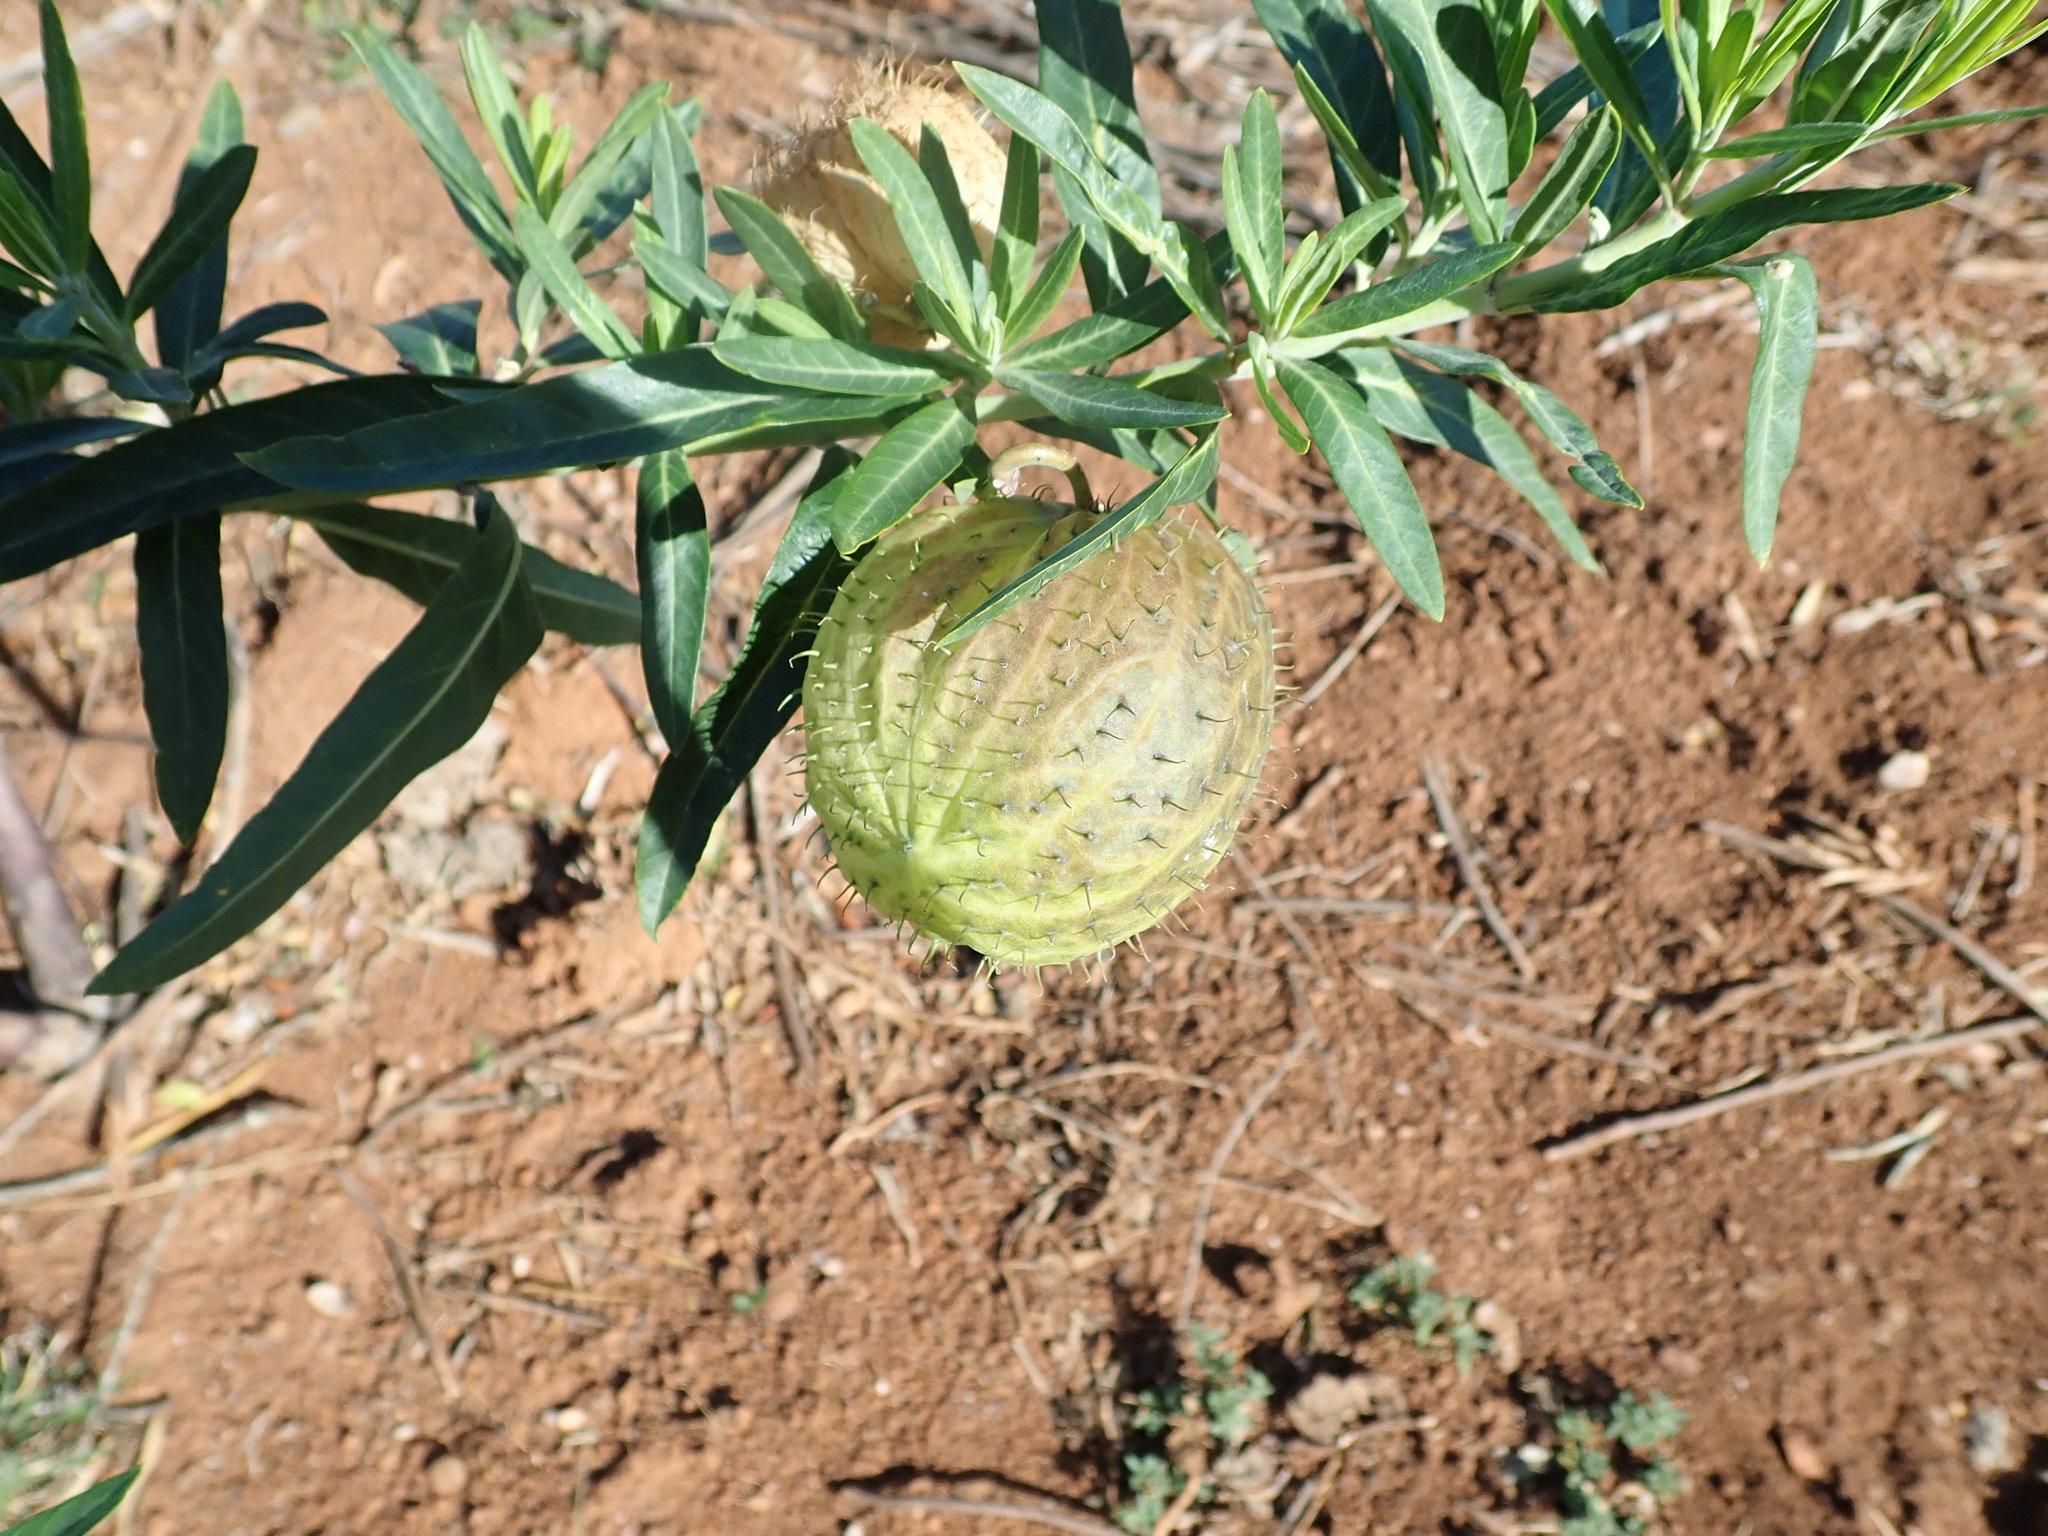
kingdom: Plantae
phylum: Tracheophyta
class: Magnoliopsida
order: Gentianales
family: Apocynaceae
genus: Gomphocarpus
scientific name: Gomphocarpus physocarpus
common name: Balloon cotton bush
